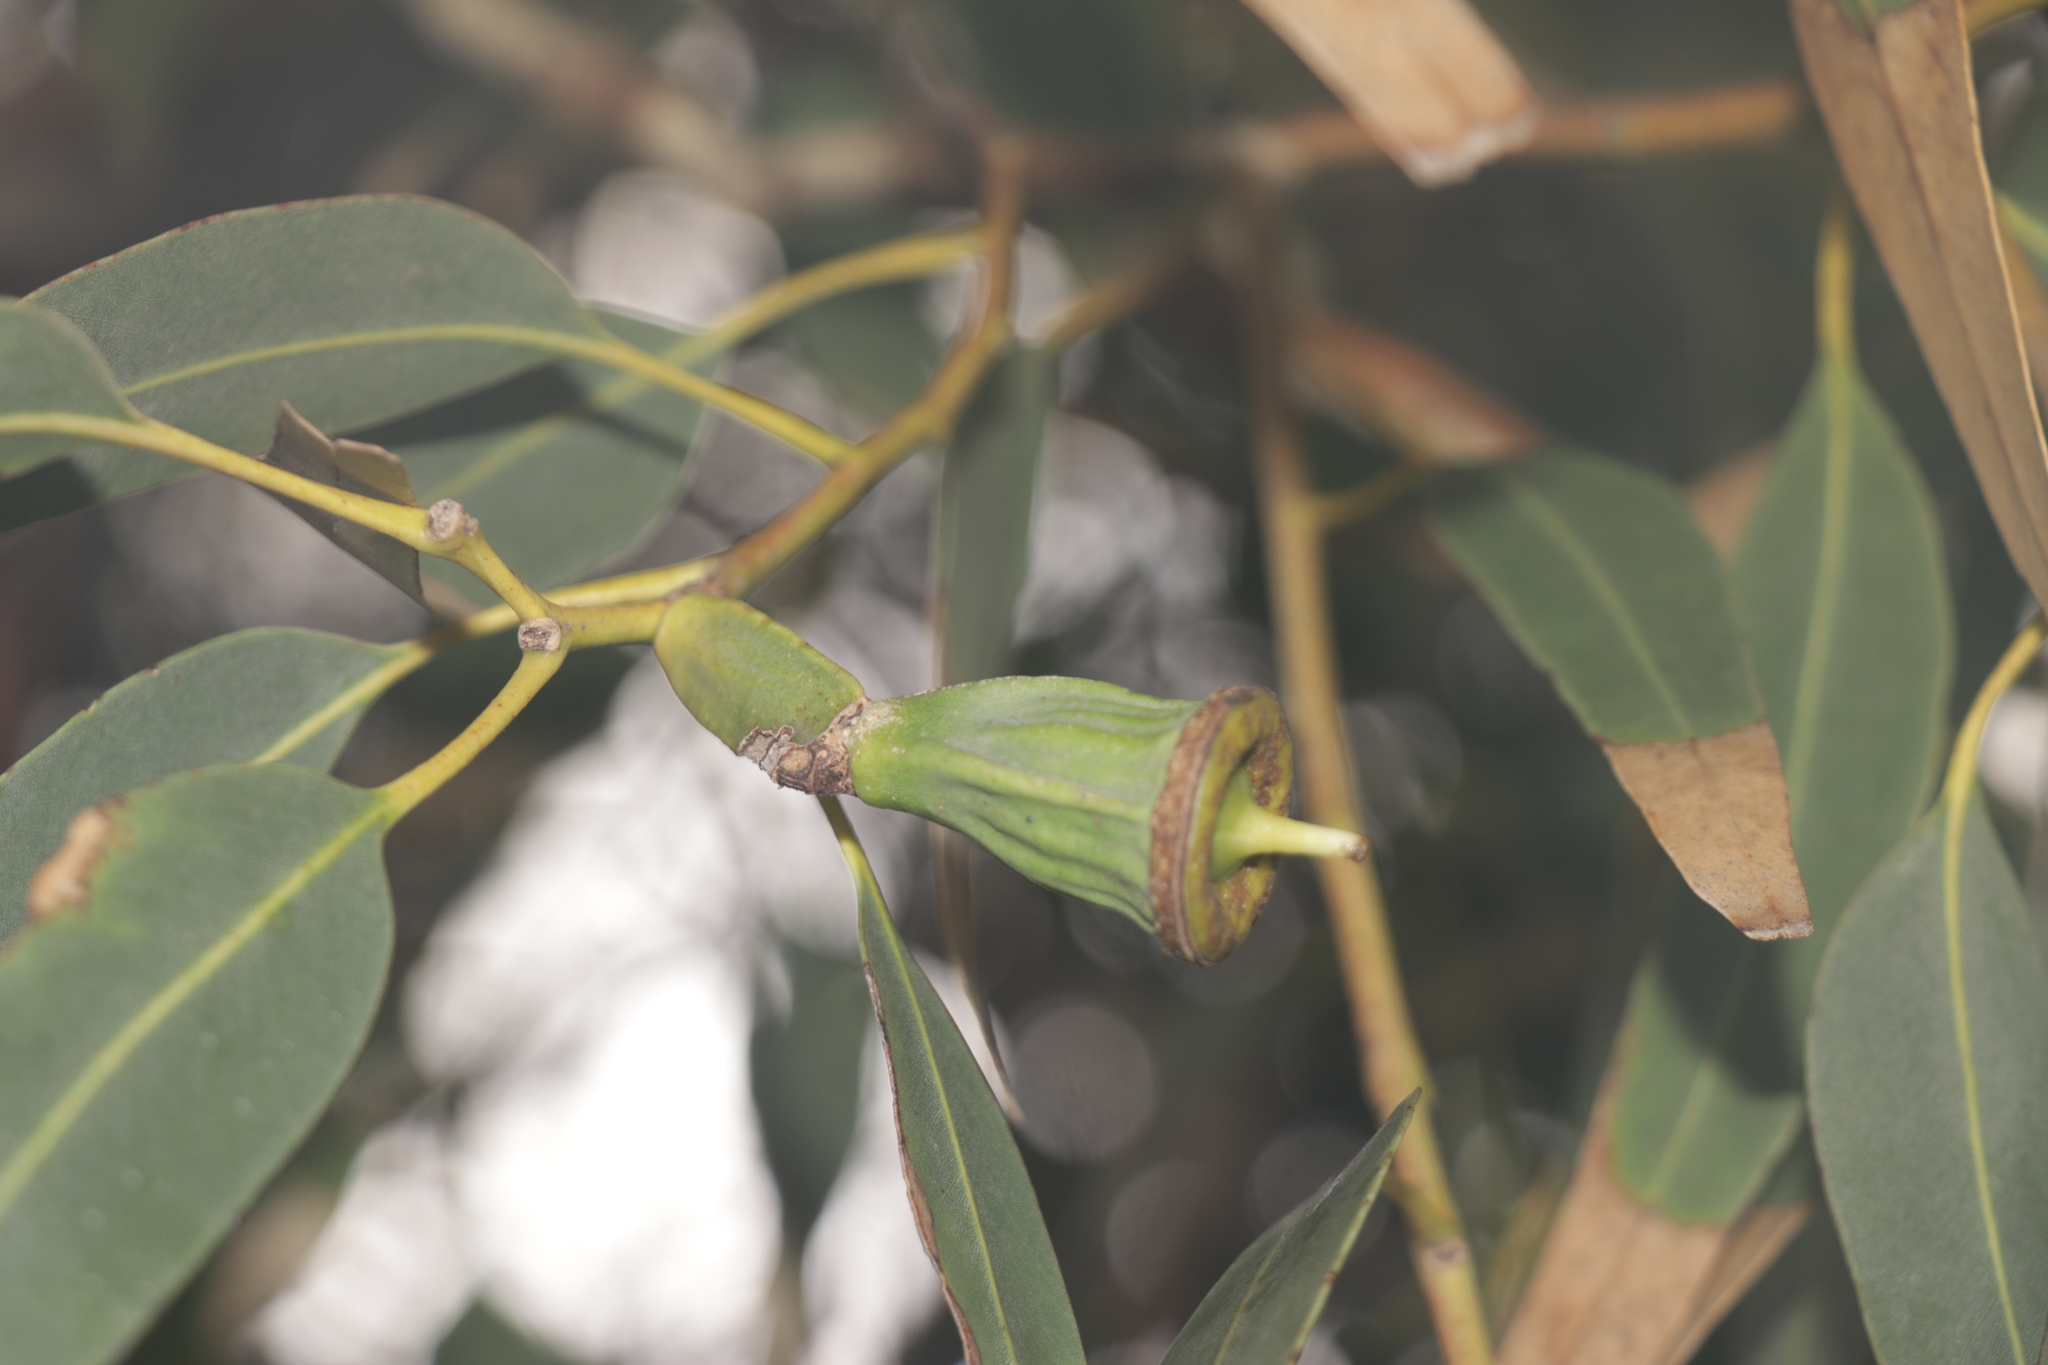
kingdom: Plantae
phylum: Tracheophyta
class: Magnoliopsida
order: Myrtales
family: Myrtaceae
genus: Eucalyptus
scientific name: Eucalyptus gomphocephala
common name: Tuart
